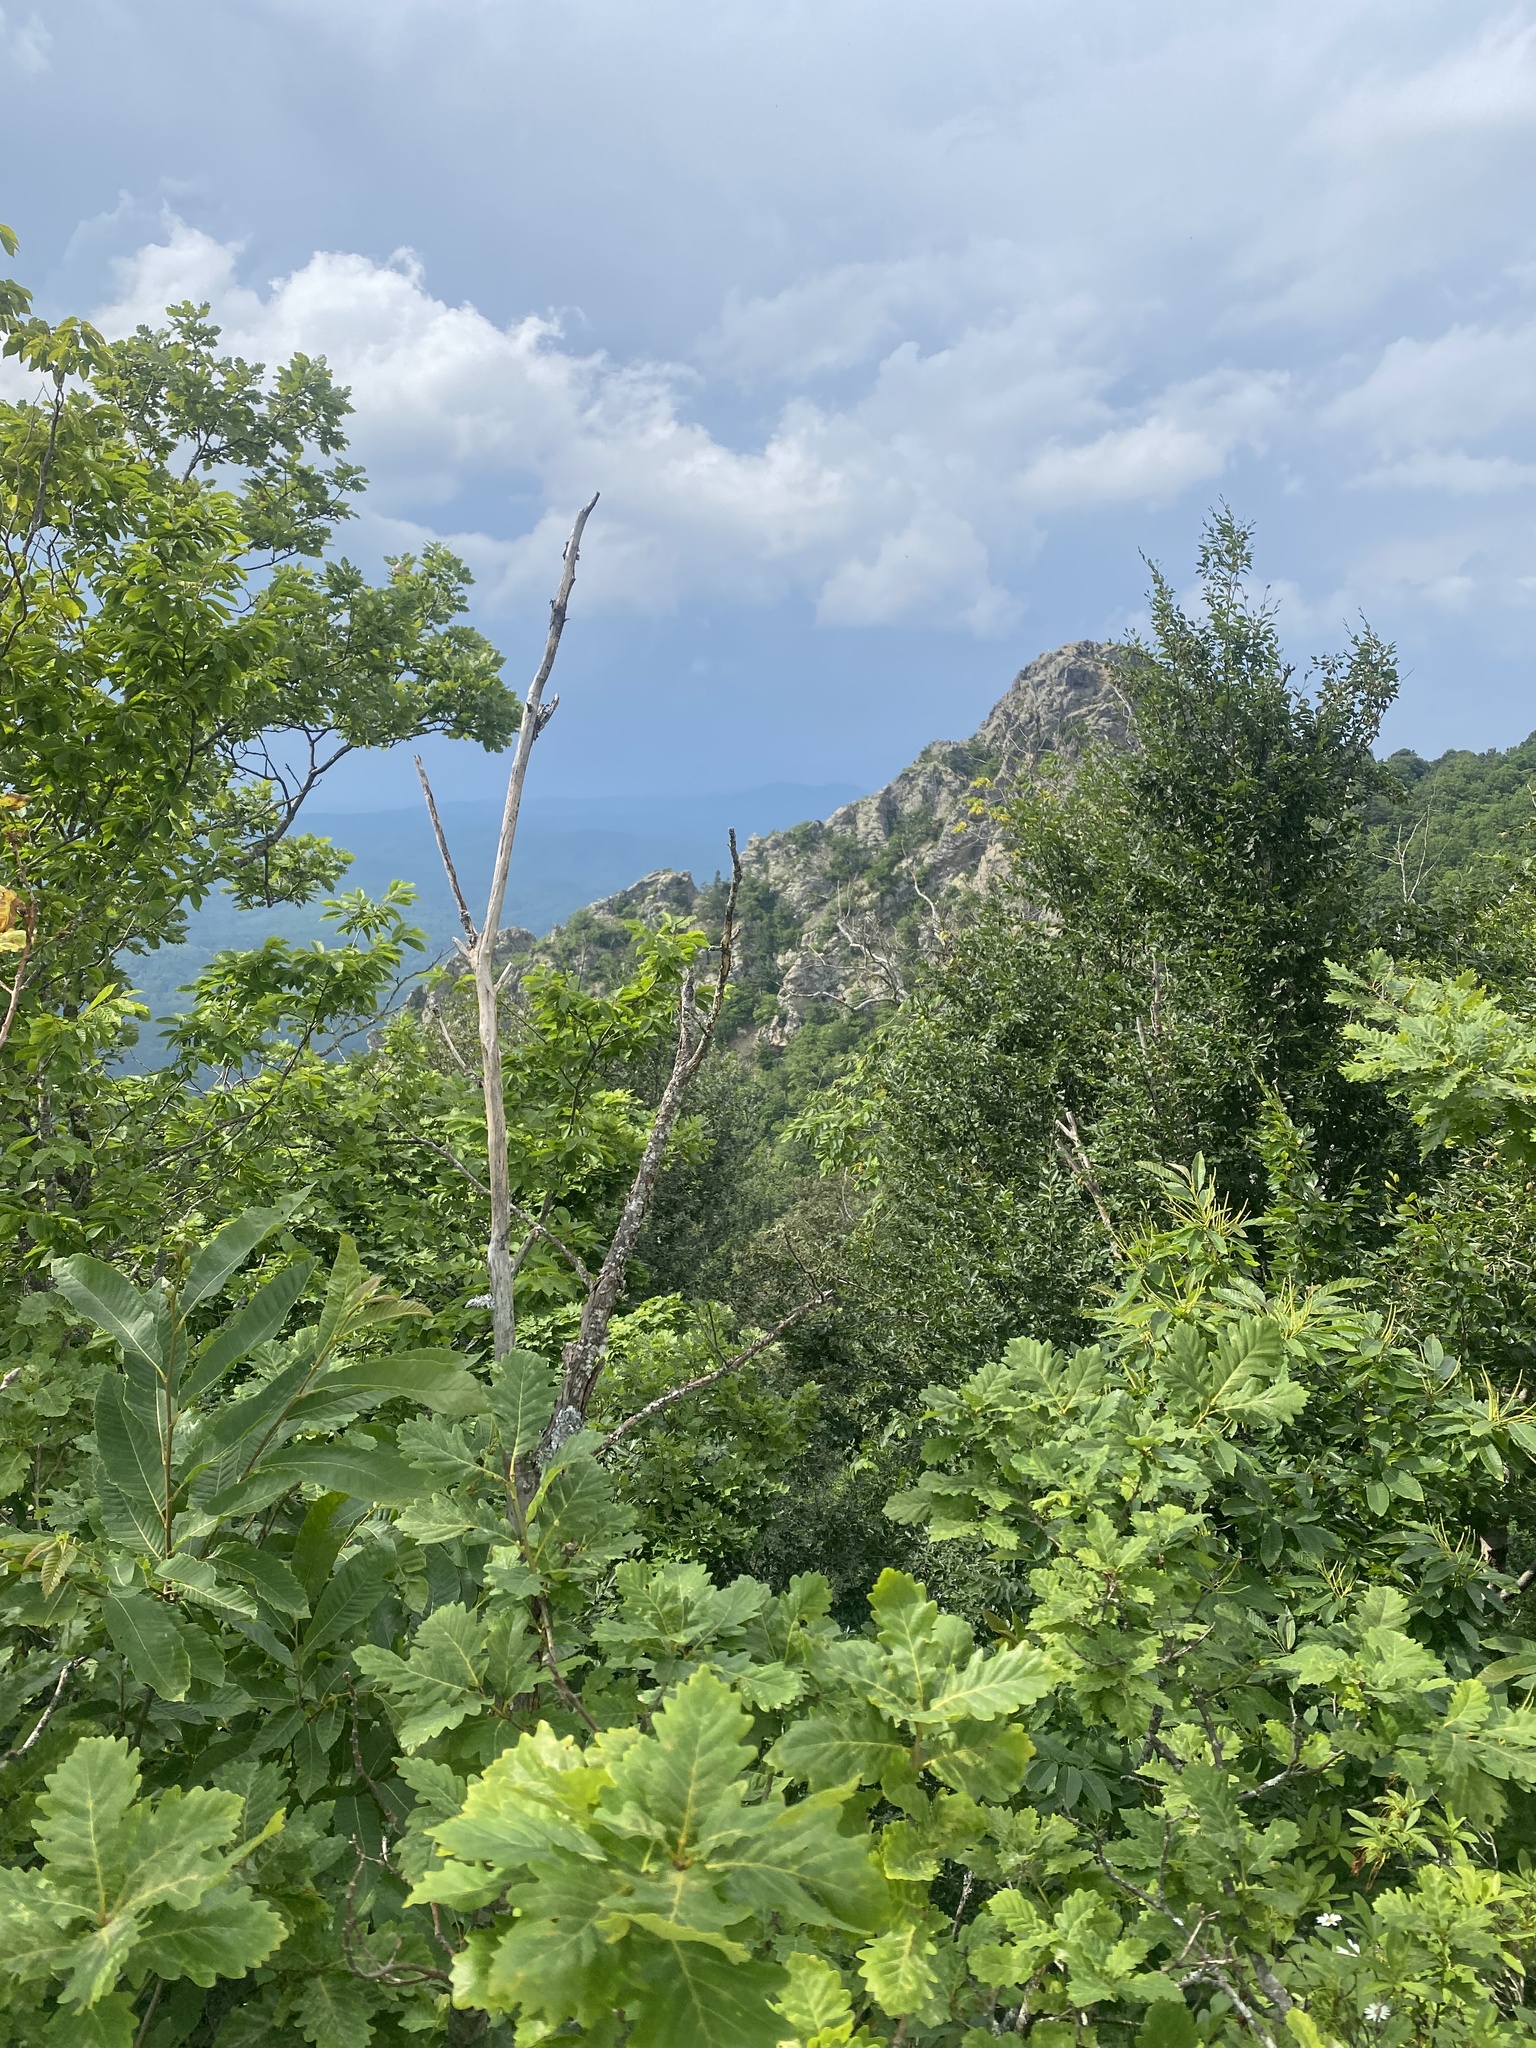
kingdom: Plantae
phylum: Tracheophyta
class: Magnoliopsida
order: Fagales
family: Fagaceae
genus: Castanea
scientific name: Castanea sativa
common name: Sweet chestnut
